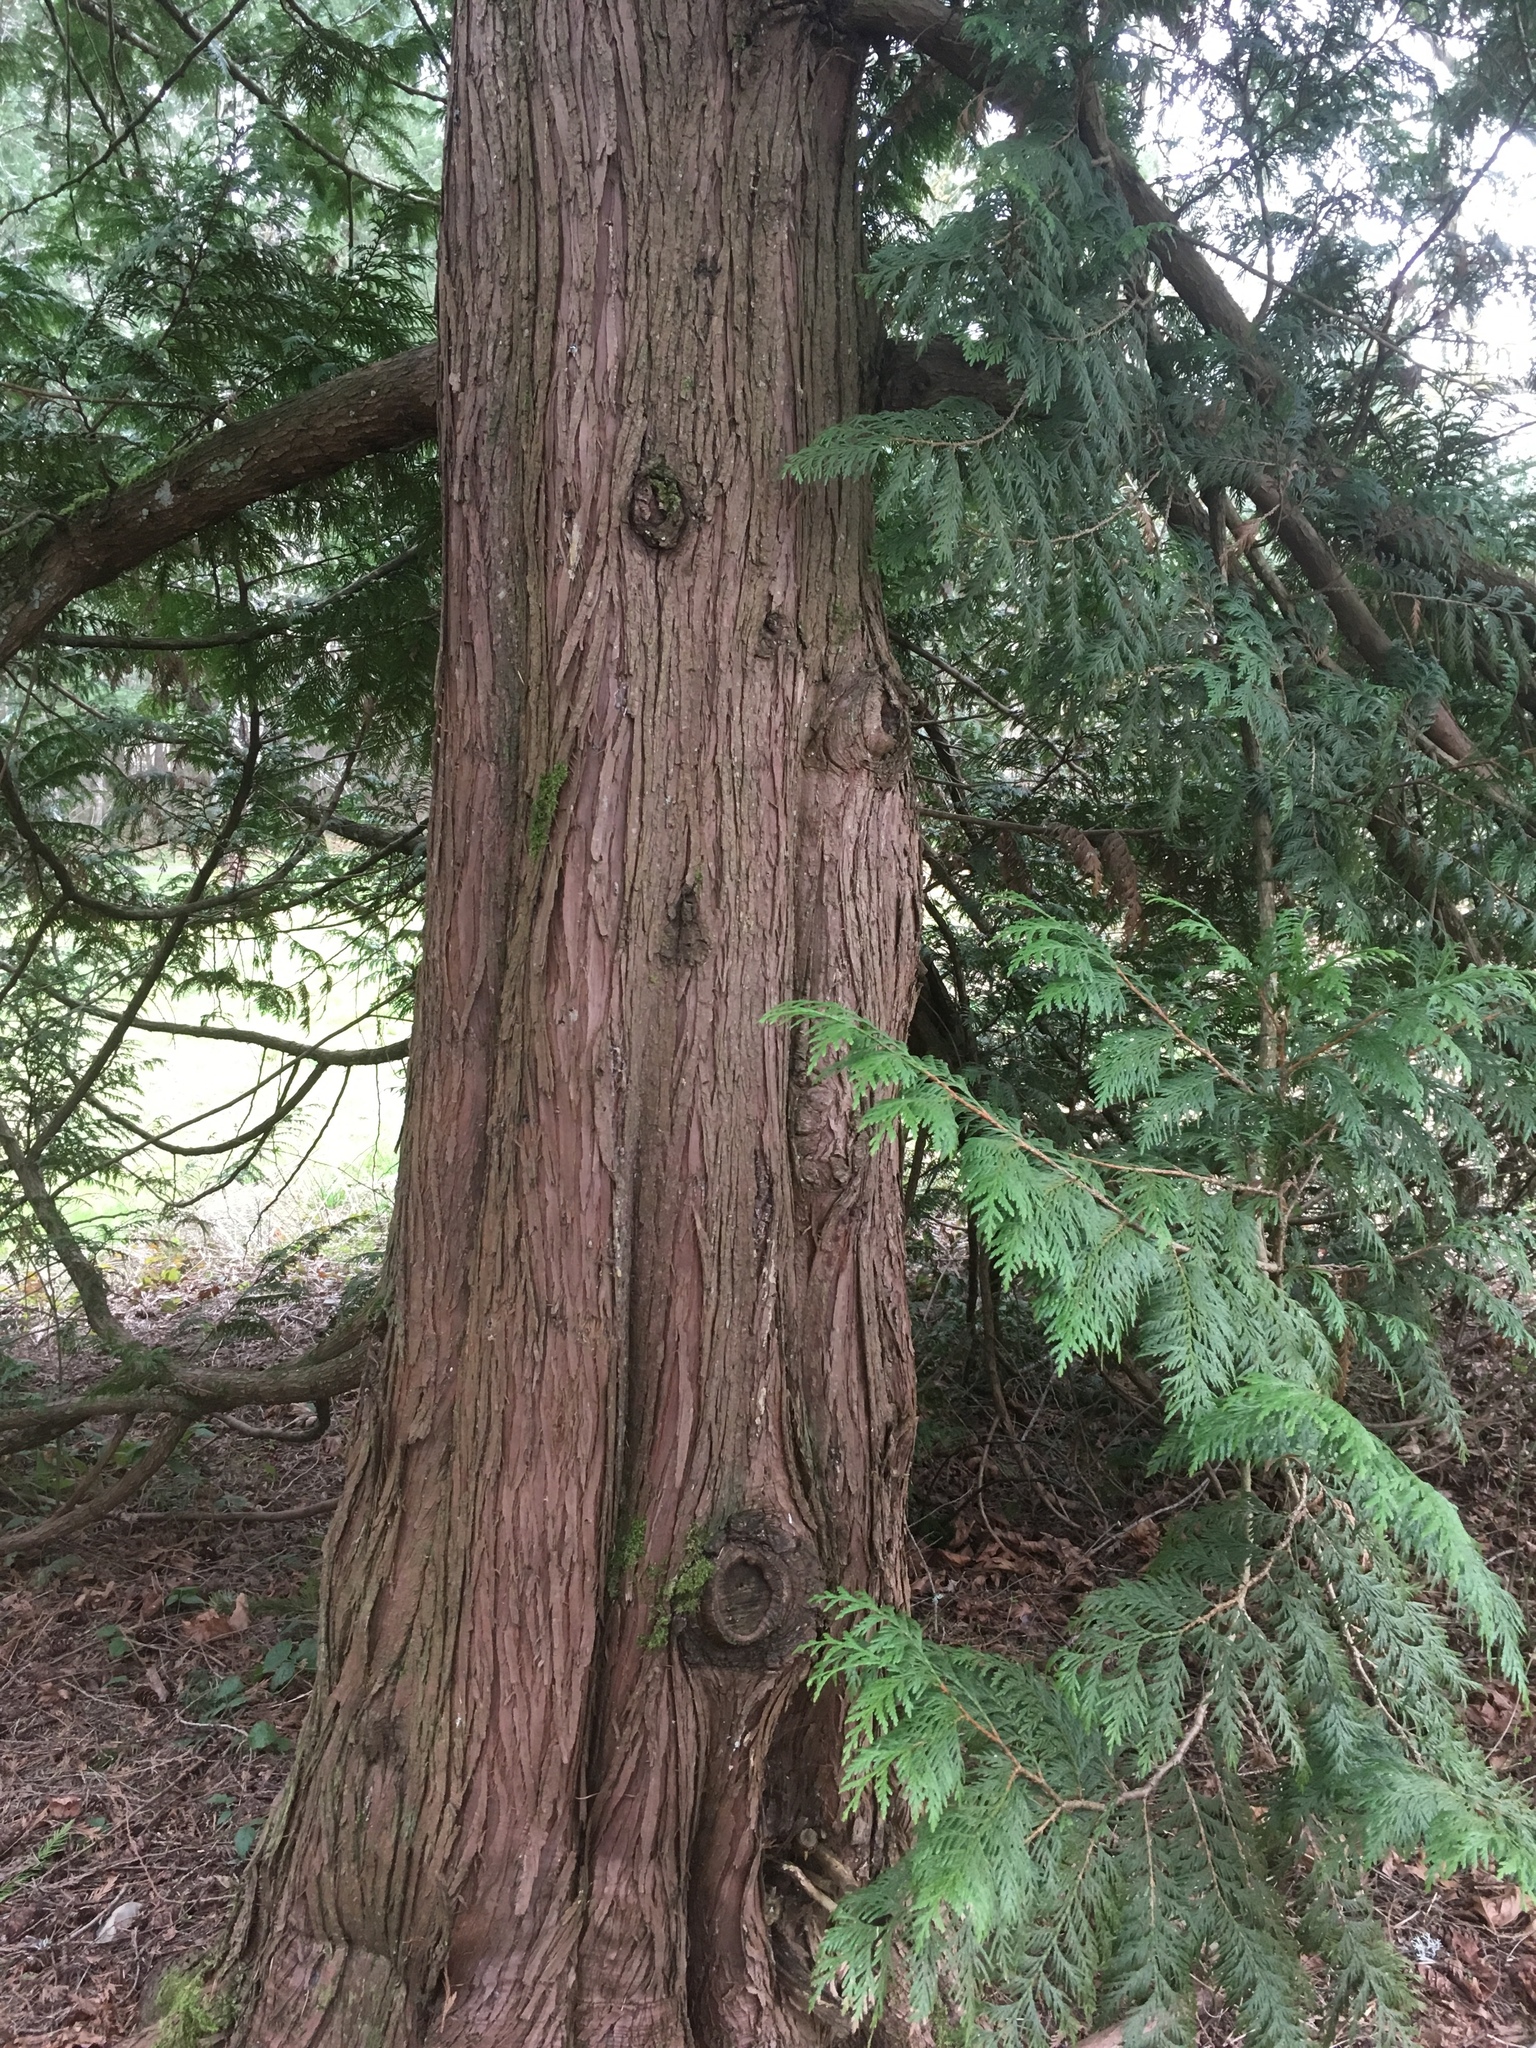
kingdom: Plantae
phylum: Tracheophyta
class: Pinopsida
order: Pinales
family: Cupressaceae
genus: Thuja
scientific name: Thuja plicata
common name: Western red-cedar
